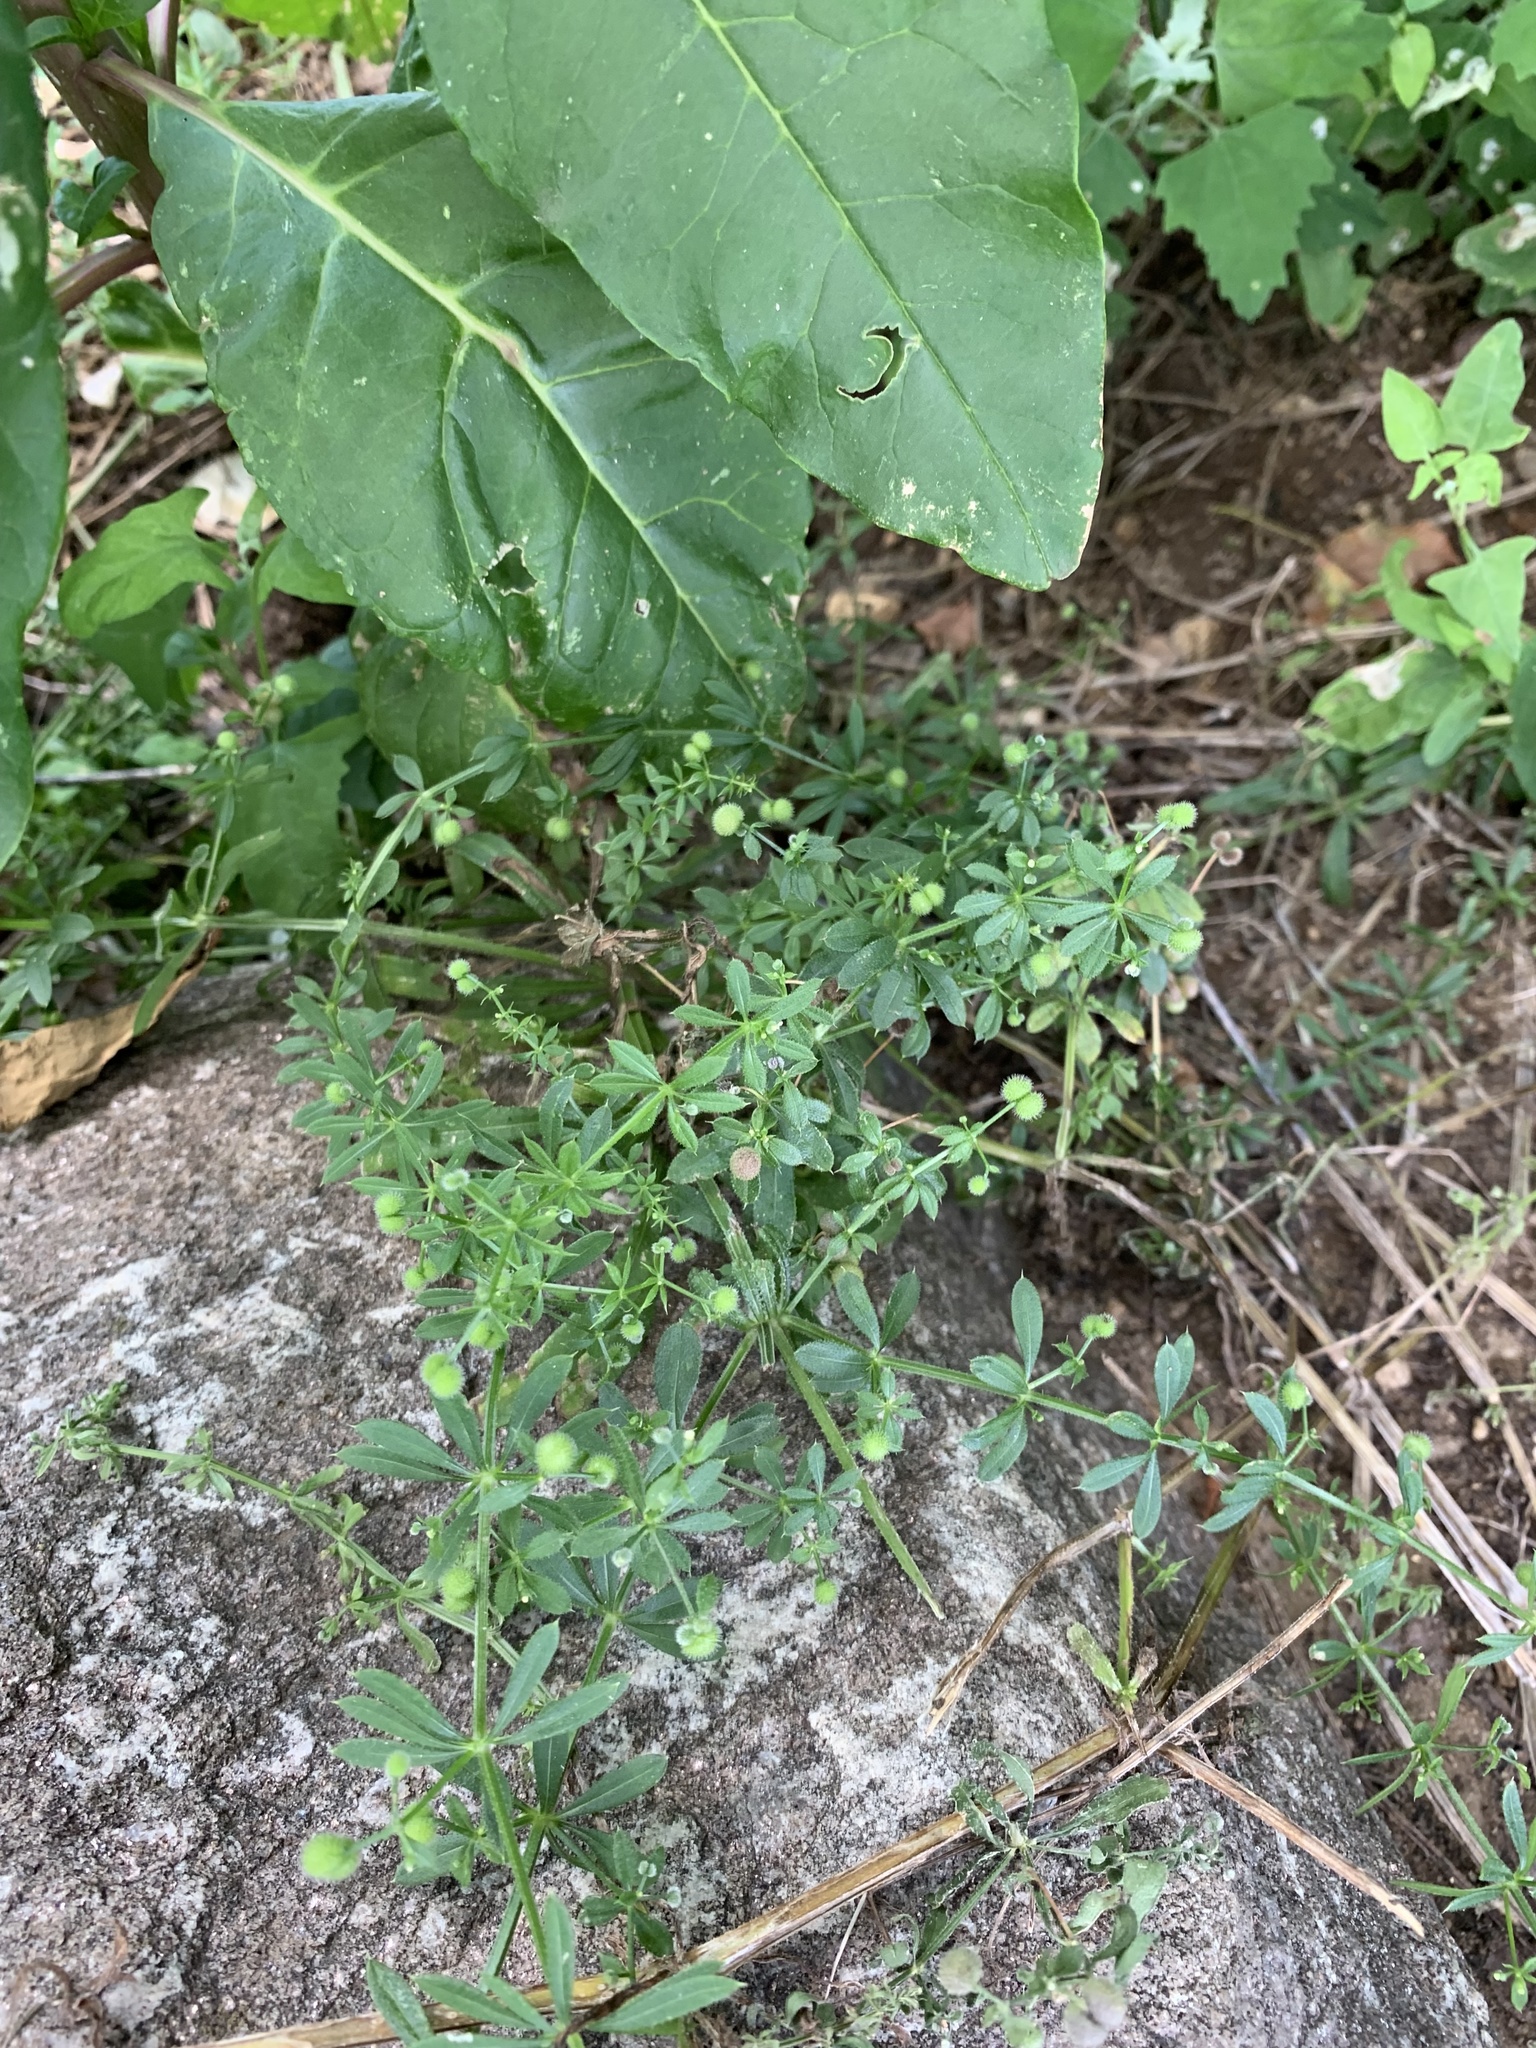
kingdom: Plantae
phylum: Tracheophyta
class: Magnoliopsida
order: Gentianales
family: Rubiaceae
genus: Galium
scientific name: Galium aparine
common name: Cleavers
